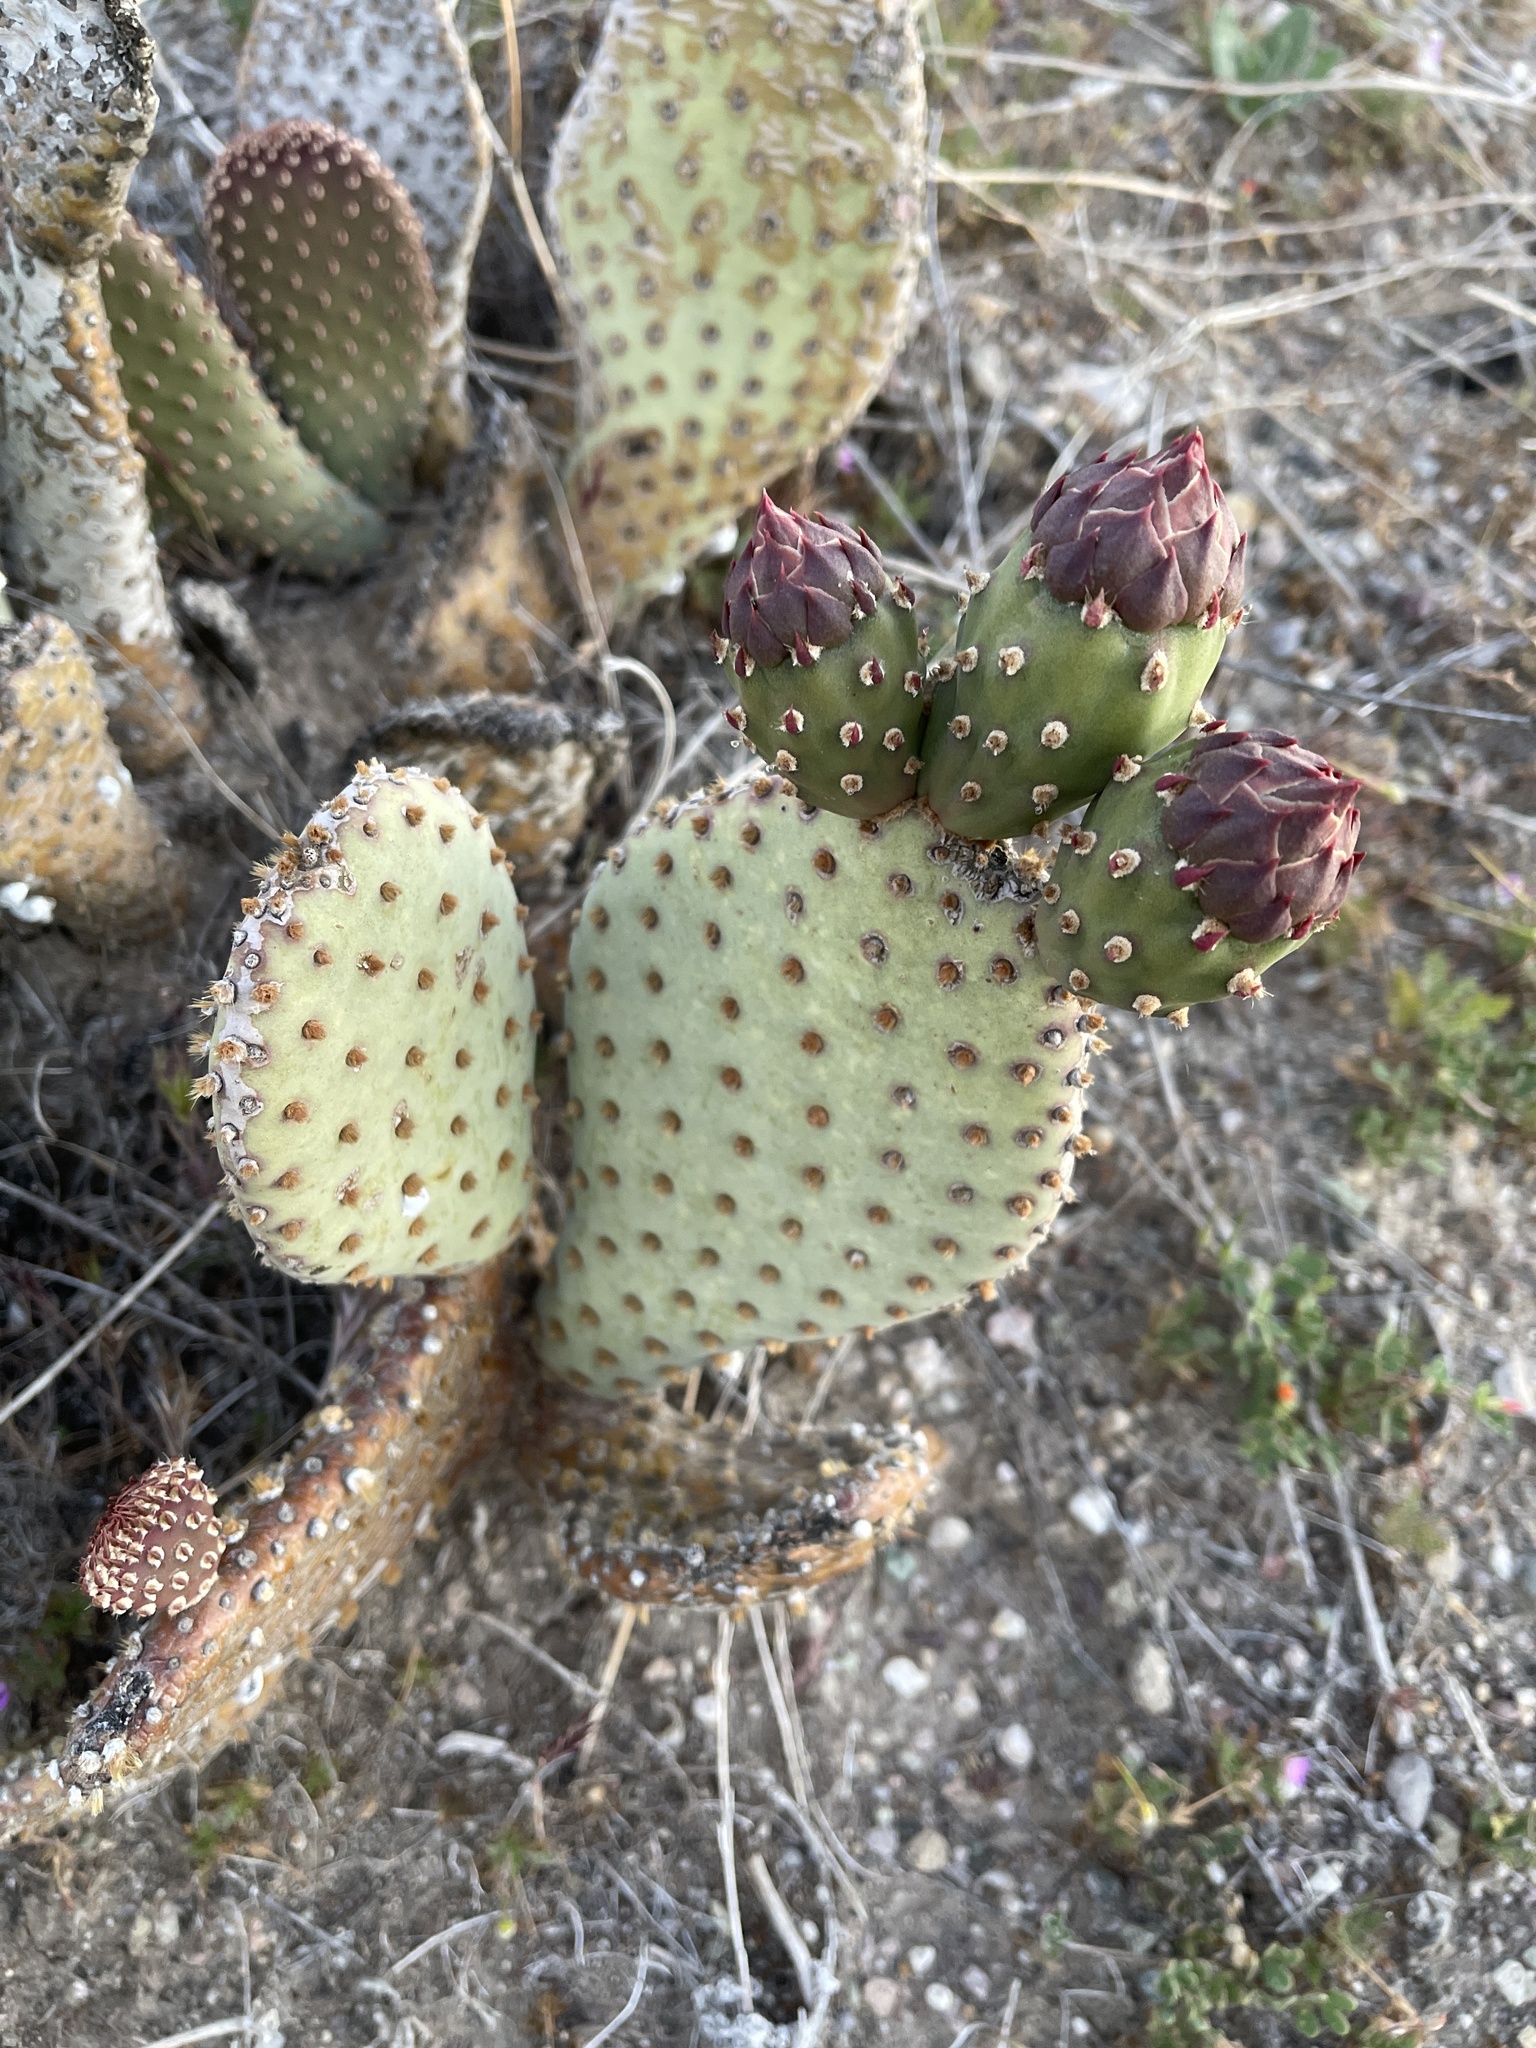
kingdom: Plantae
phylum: Tracheophyta
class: Magnoliopsida
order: Caryophyllales
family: Cactaceae
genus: Opuntia
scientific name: Opuntia basilaris
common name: Beavertail prickly-pear
